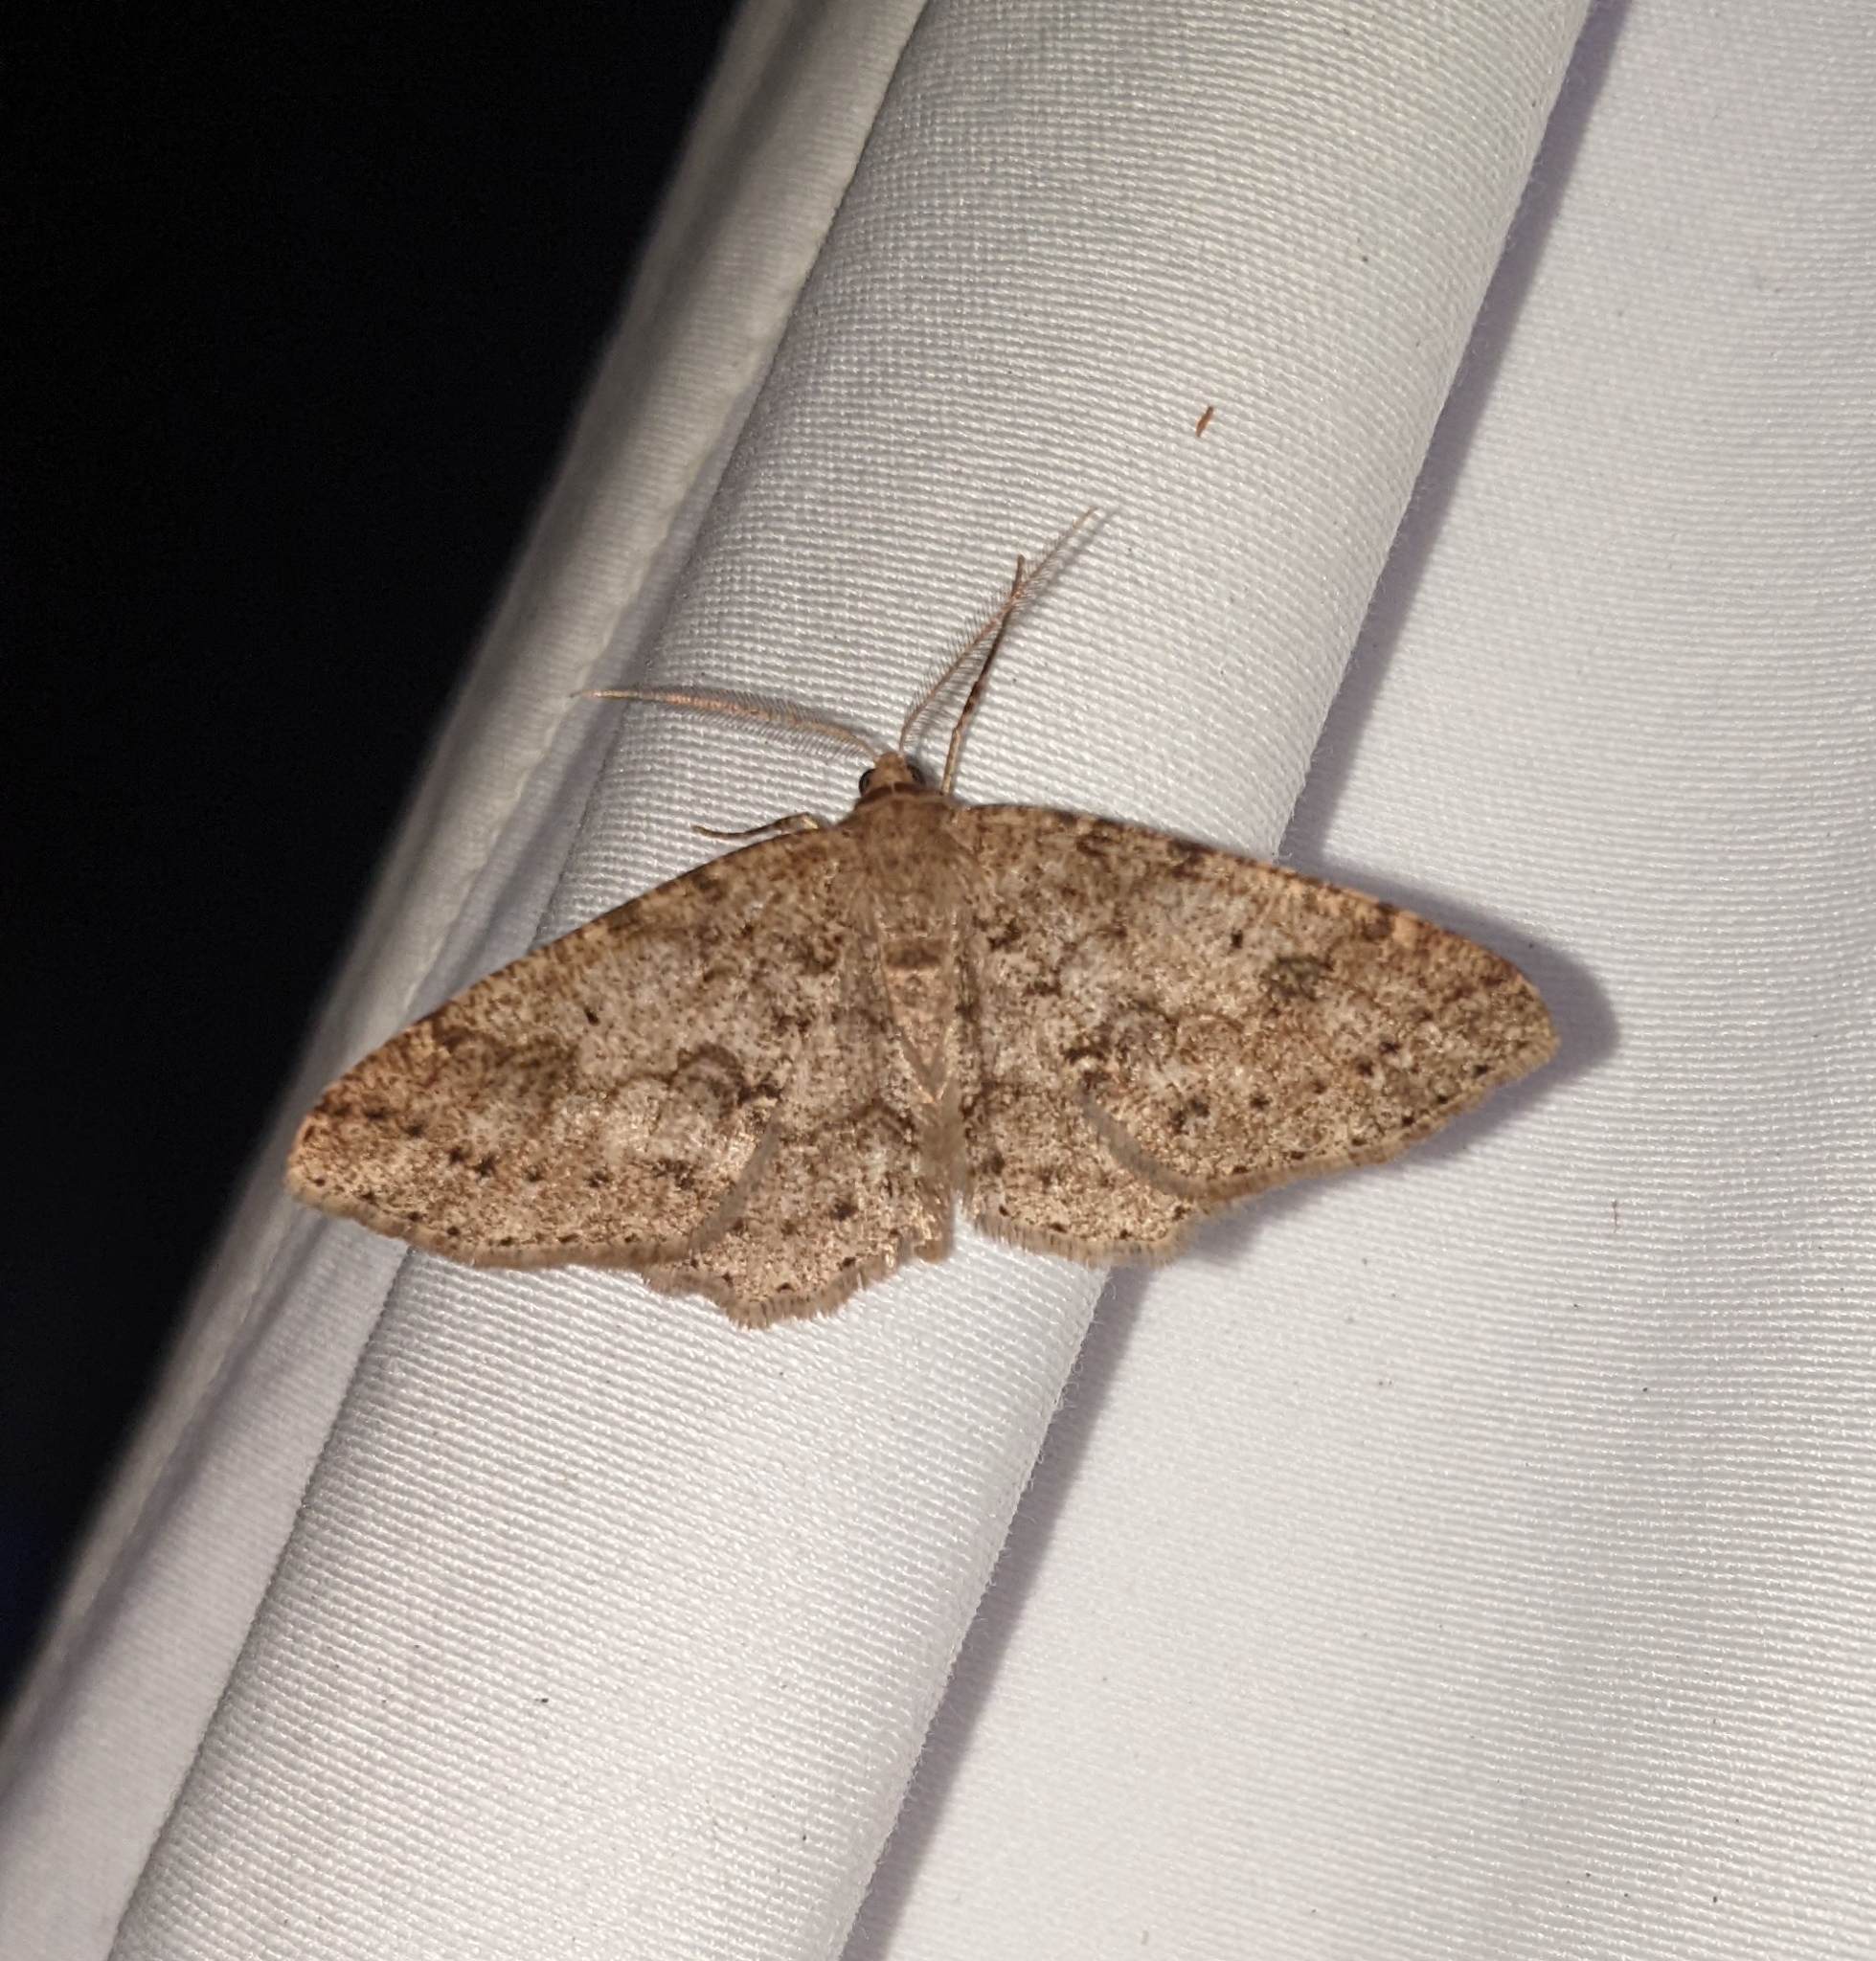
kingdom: Animalia
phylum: Arthropoda
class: Insecta
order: Lepidoptera
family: Geometridae
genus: Melanolophia
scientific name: Melanolophia imitata
